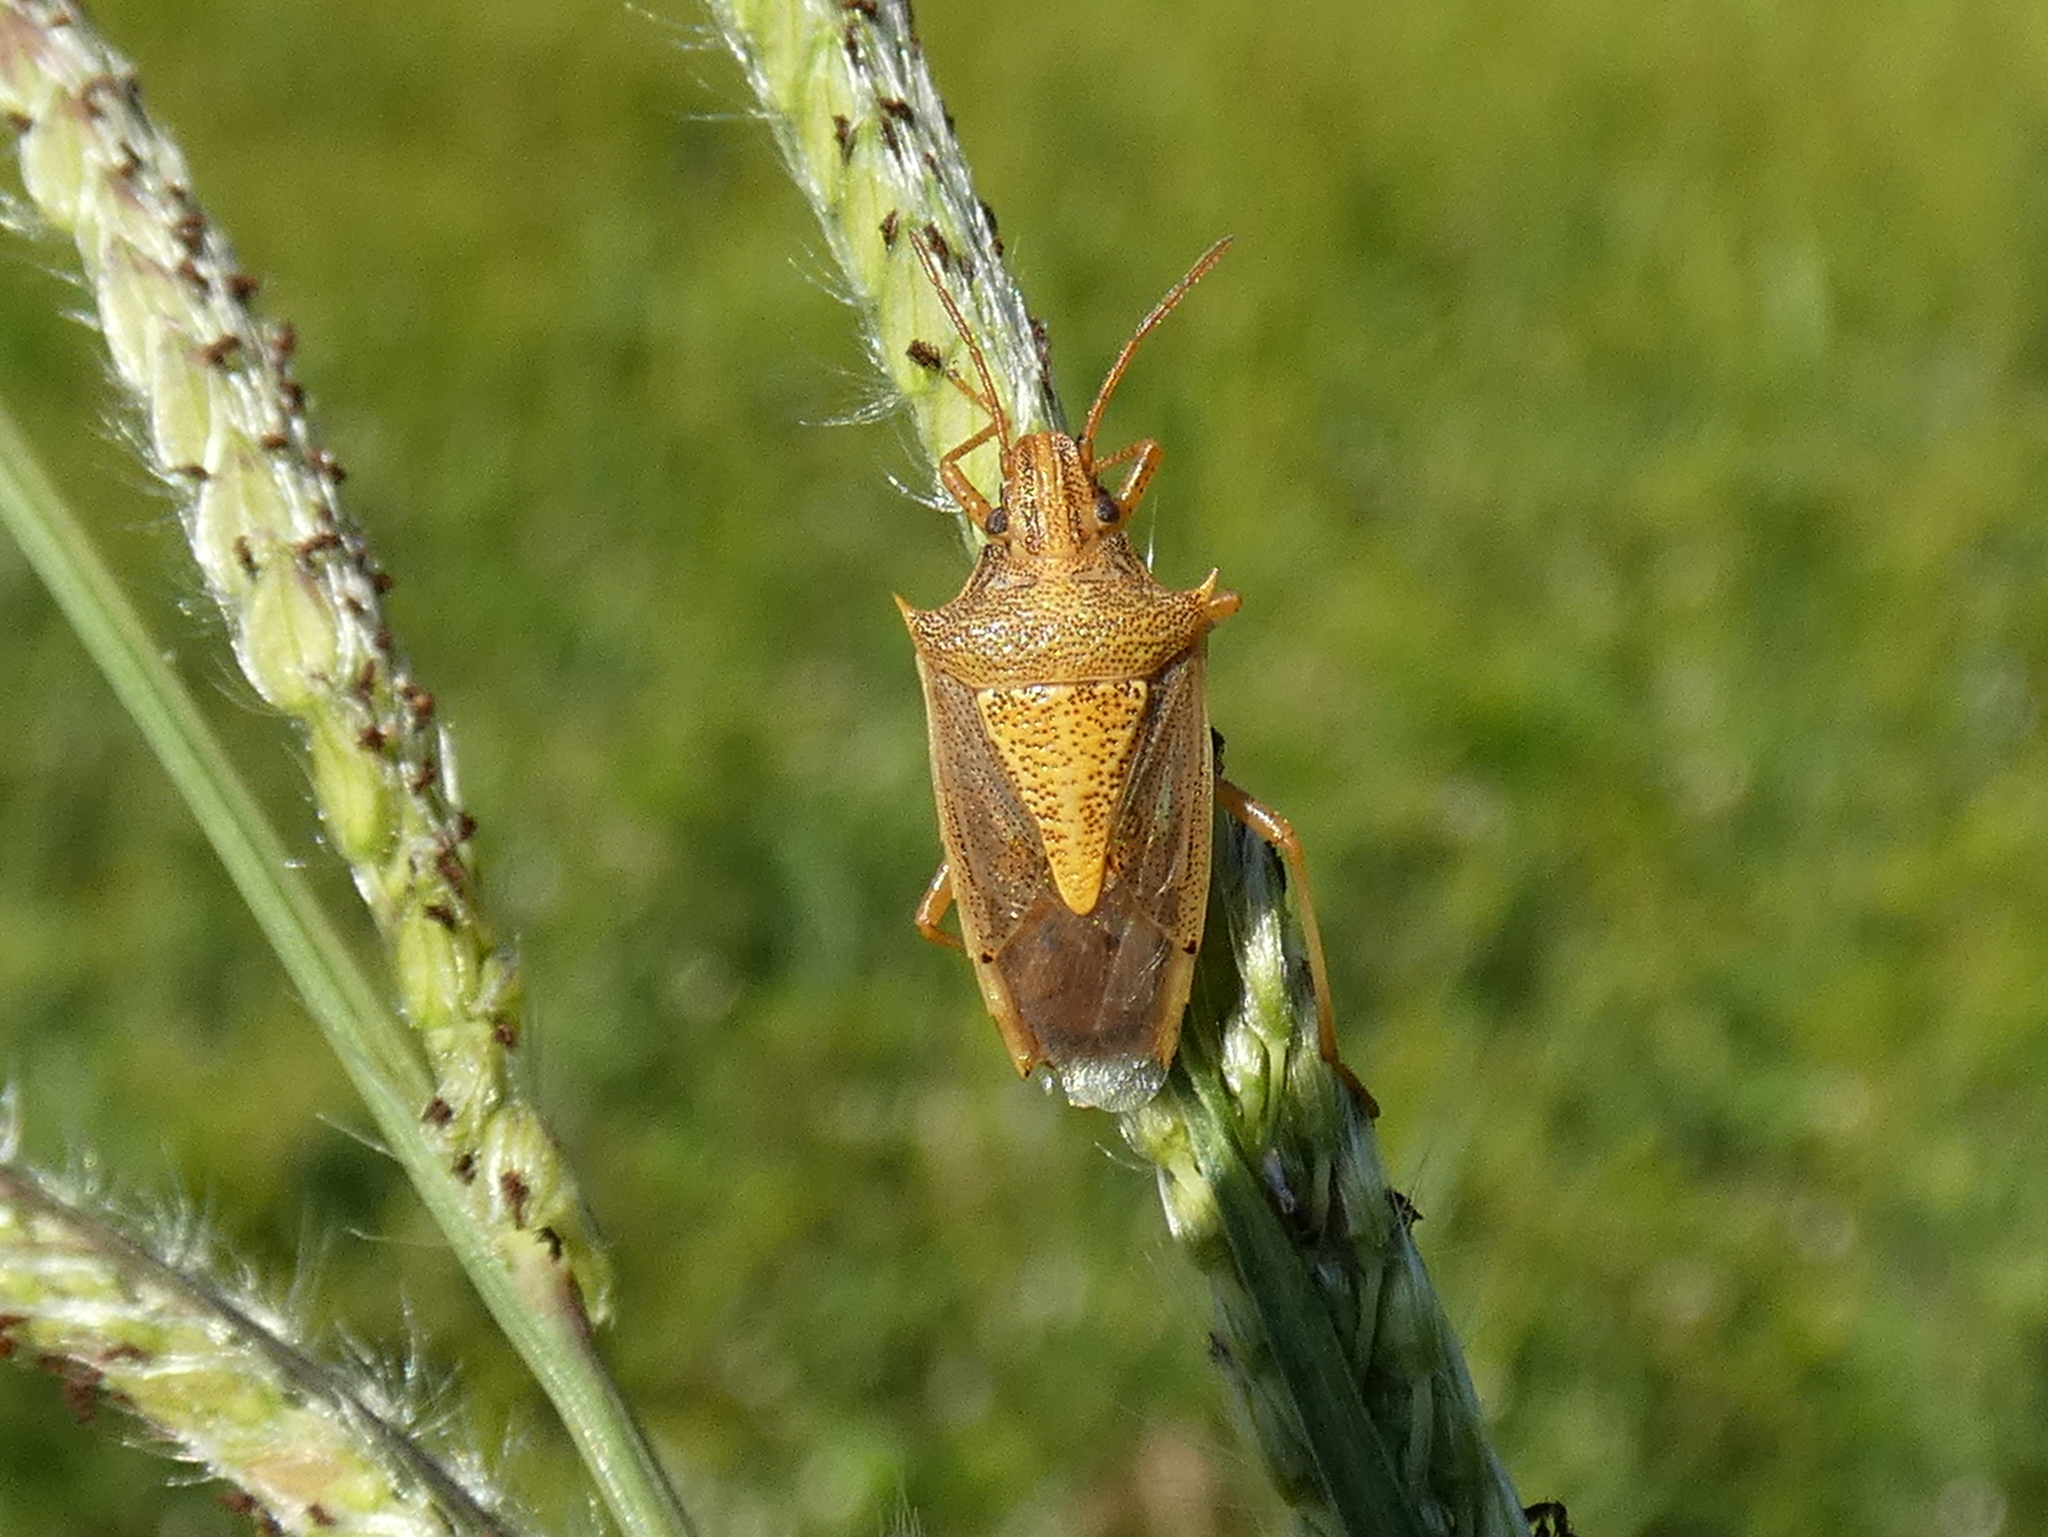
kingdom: Animalia
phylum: Arthropoda
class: Insecta
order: Hemiptera
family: Pentatomidae
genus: Oebalus
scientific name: Oebalus pugnax
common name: Rice stink bug
